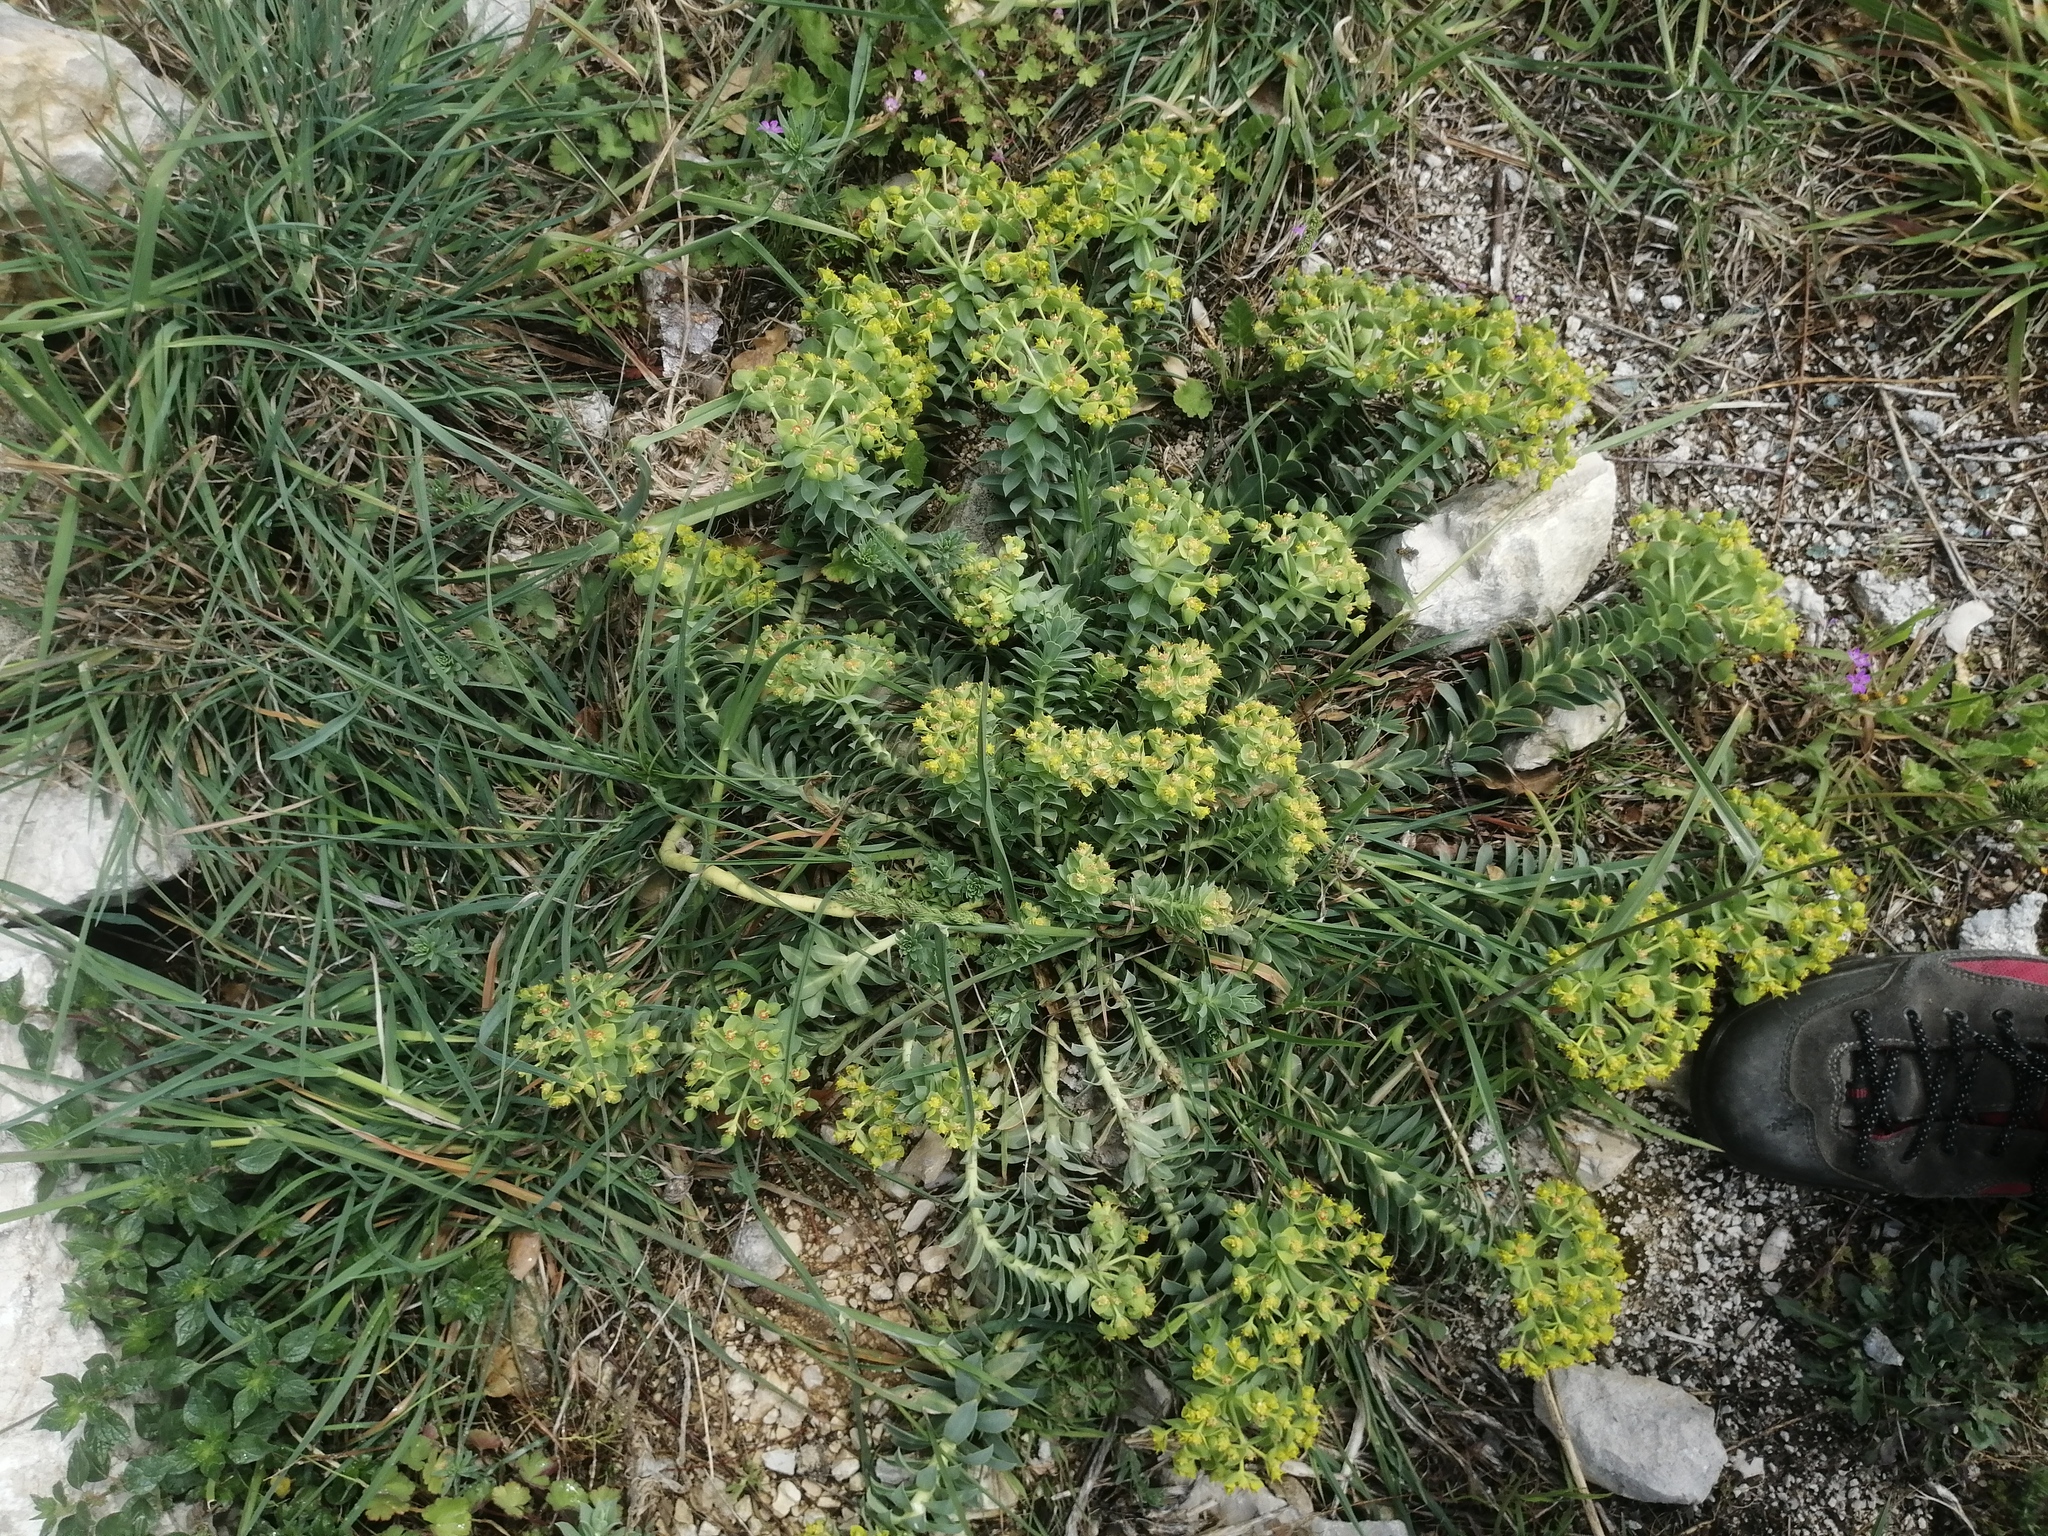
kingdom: Plantae
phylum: Tracheophyta
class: Magnoliopsida
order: Malpighiales
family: Euphorbiaceae
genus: Euphorbia
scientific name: Euphorbia myrsinites
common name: Myrtle spurge
